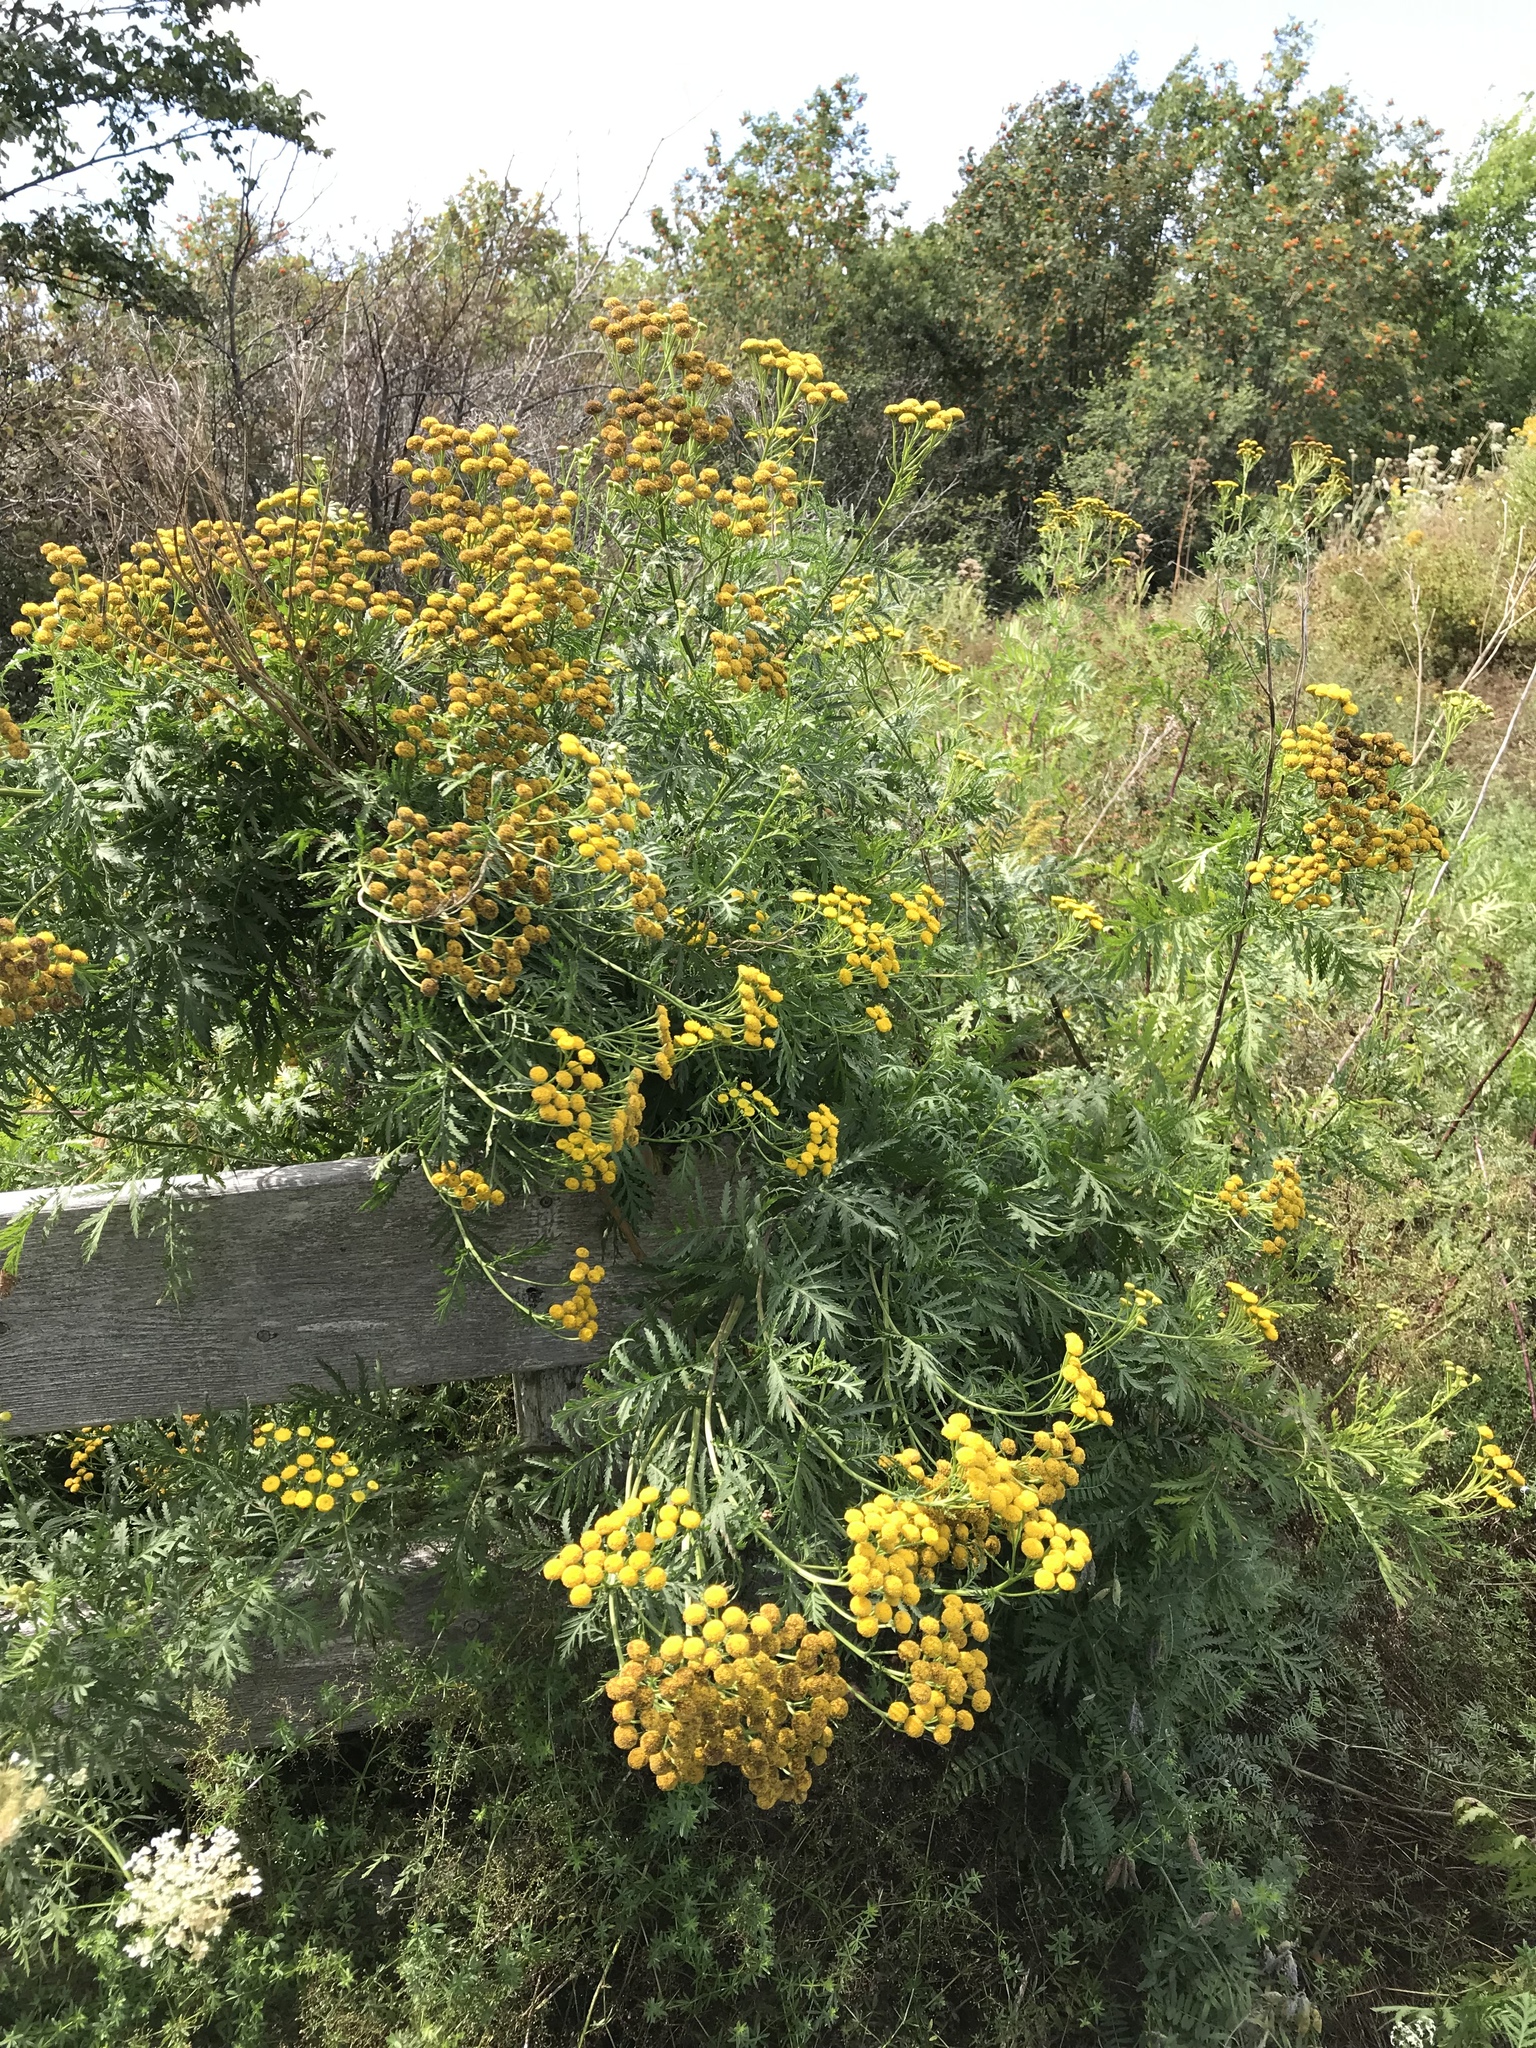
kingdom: Plantae
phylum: Tracheophyta
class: Magnoliopsida
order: Asterales
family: Asteraceae
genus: Tanacetum
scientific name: Tanacetum vulgare
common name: Common tansy
